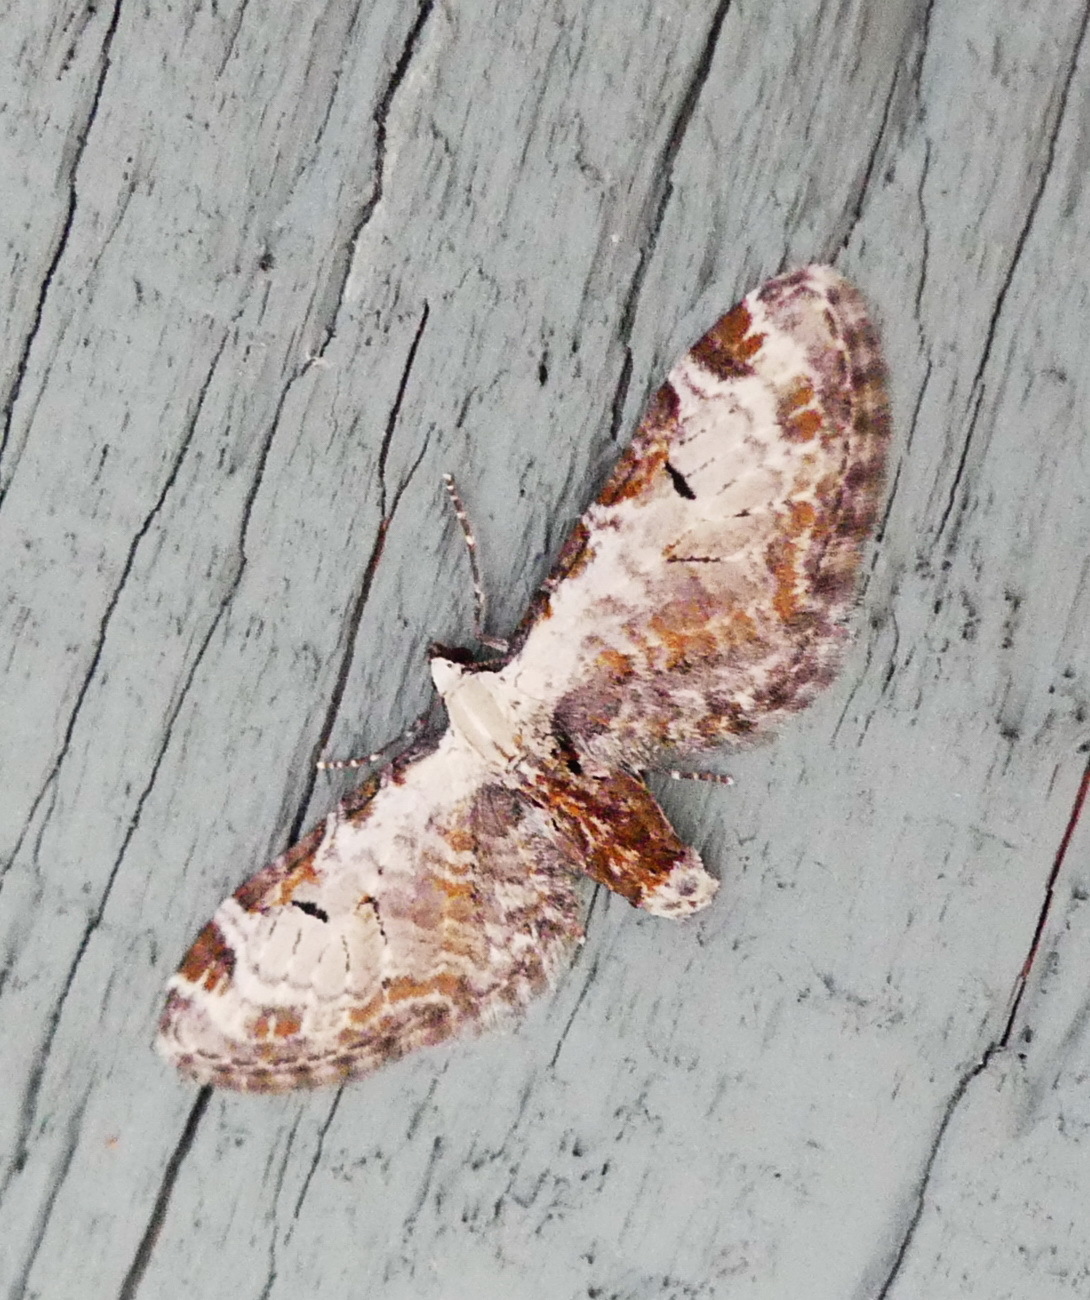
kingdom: Animalia
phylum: Arthropoda
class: Insecta
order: Lepidoptera
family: Geometridae
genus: Eupithecia
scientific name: Eupithecia ravocostaliata
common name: Great varigated pug
